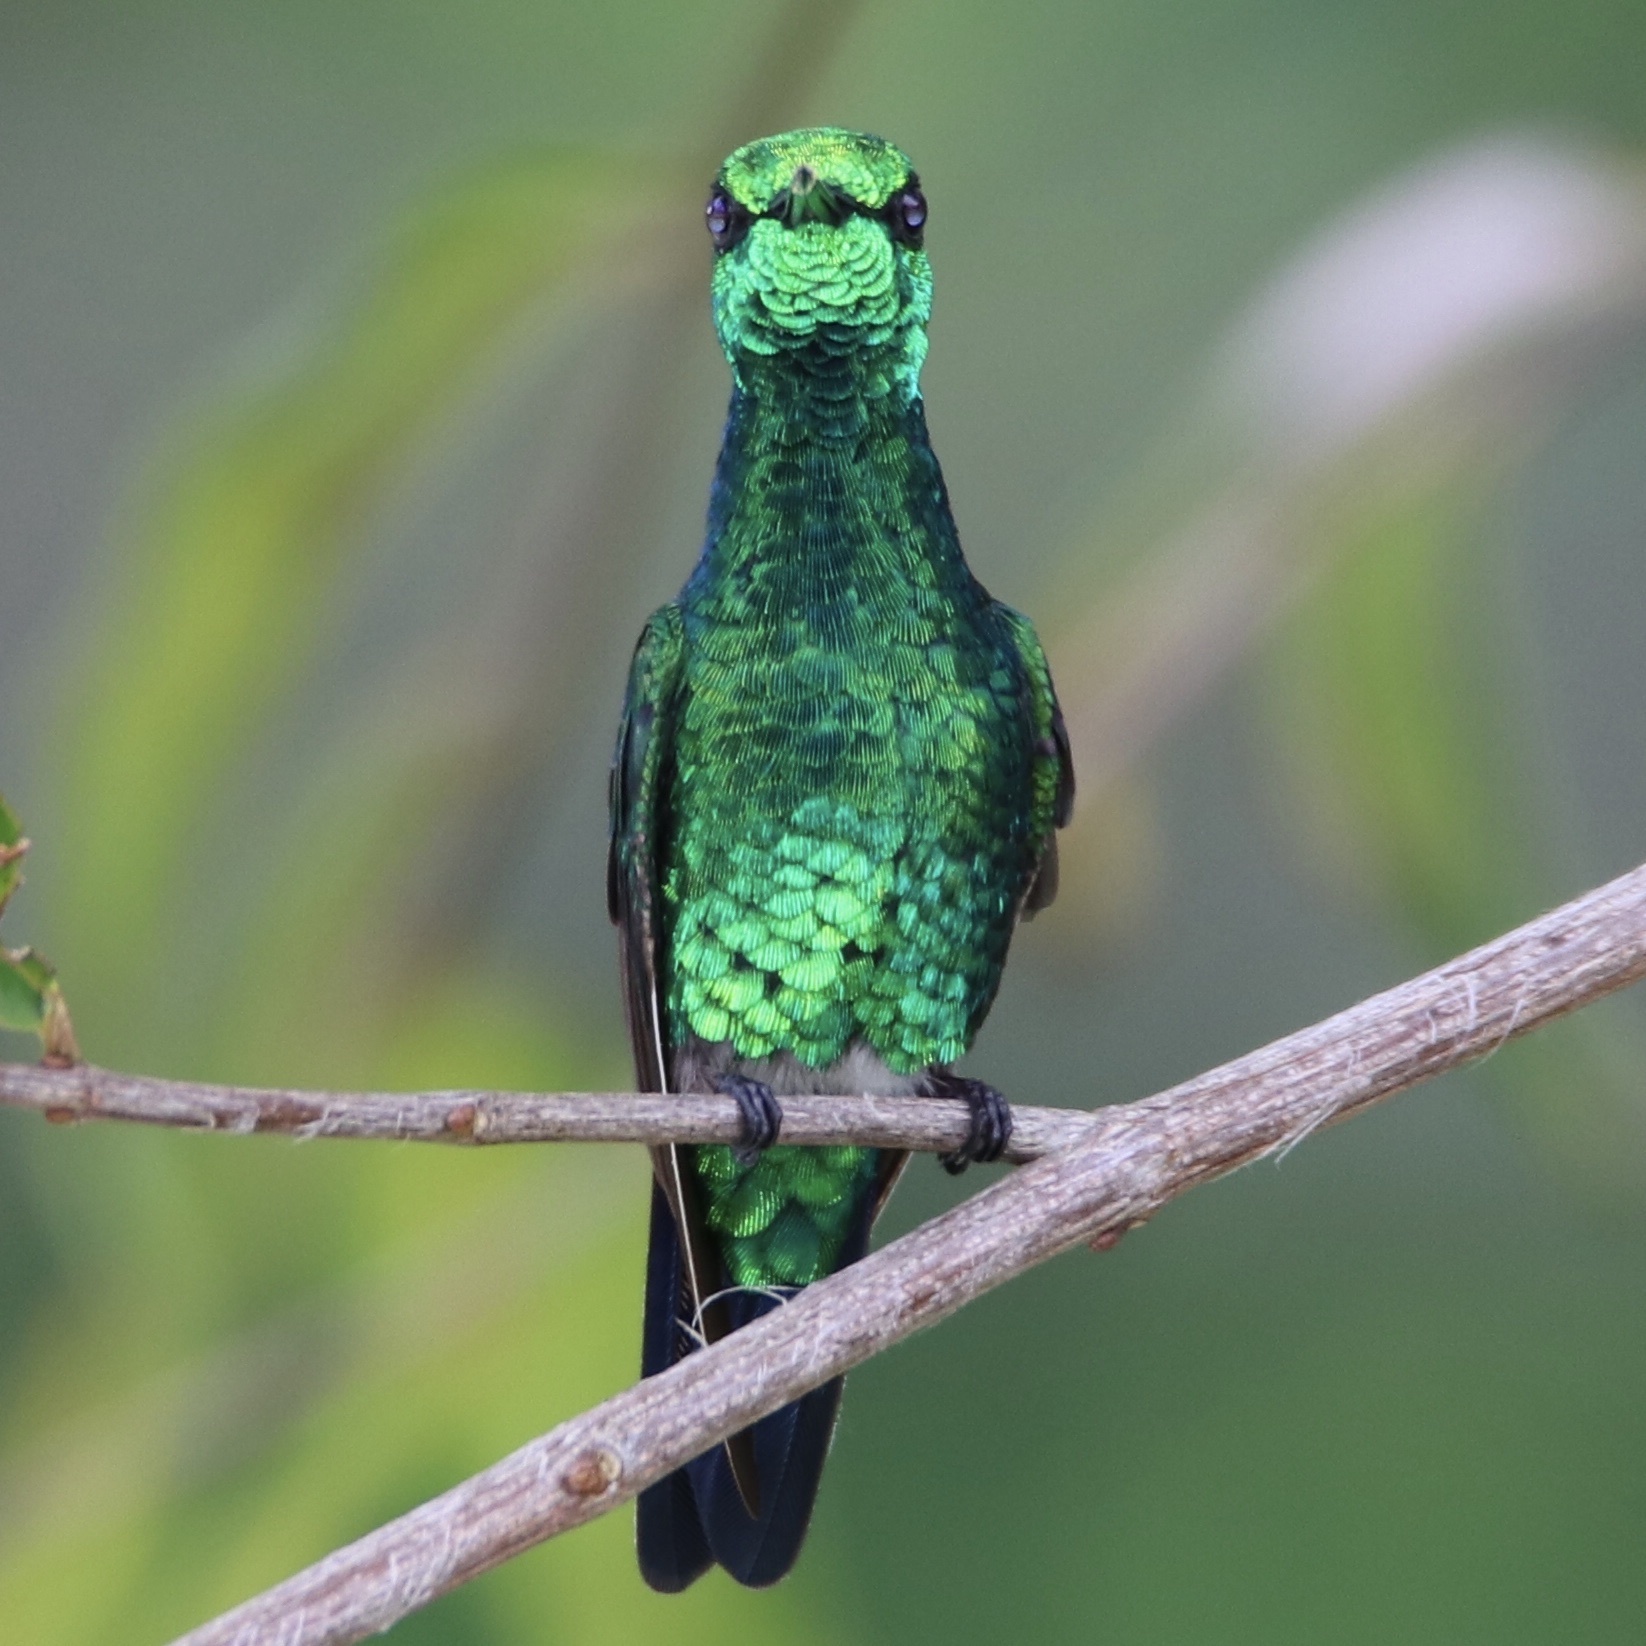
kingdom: Animalia
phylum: Chordata
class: Aves
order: Apodiformes
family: Trochilidae
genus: Chlorostilbon
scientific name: Chlorostilbon assimilis
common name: Garden emerald
